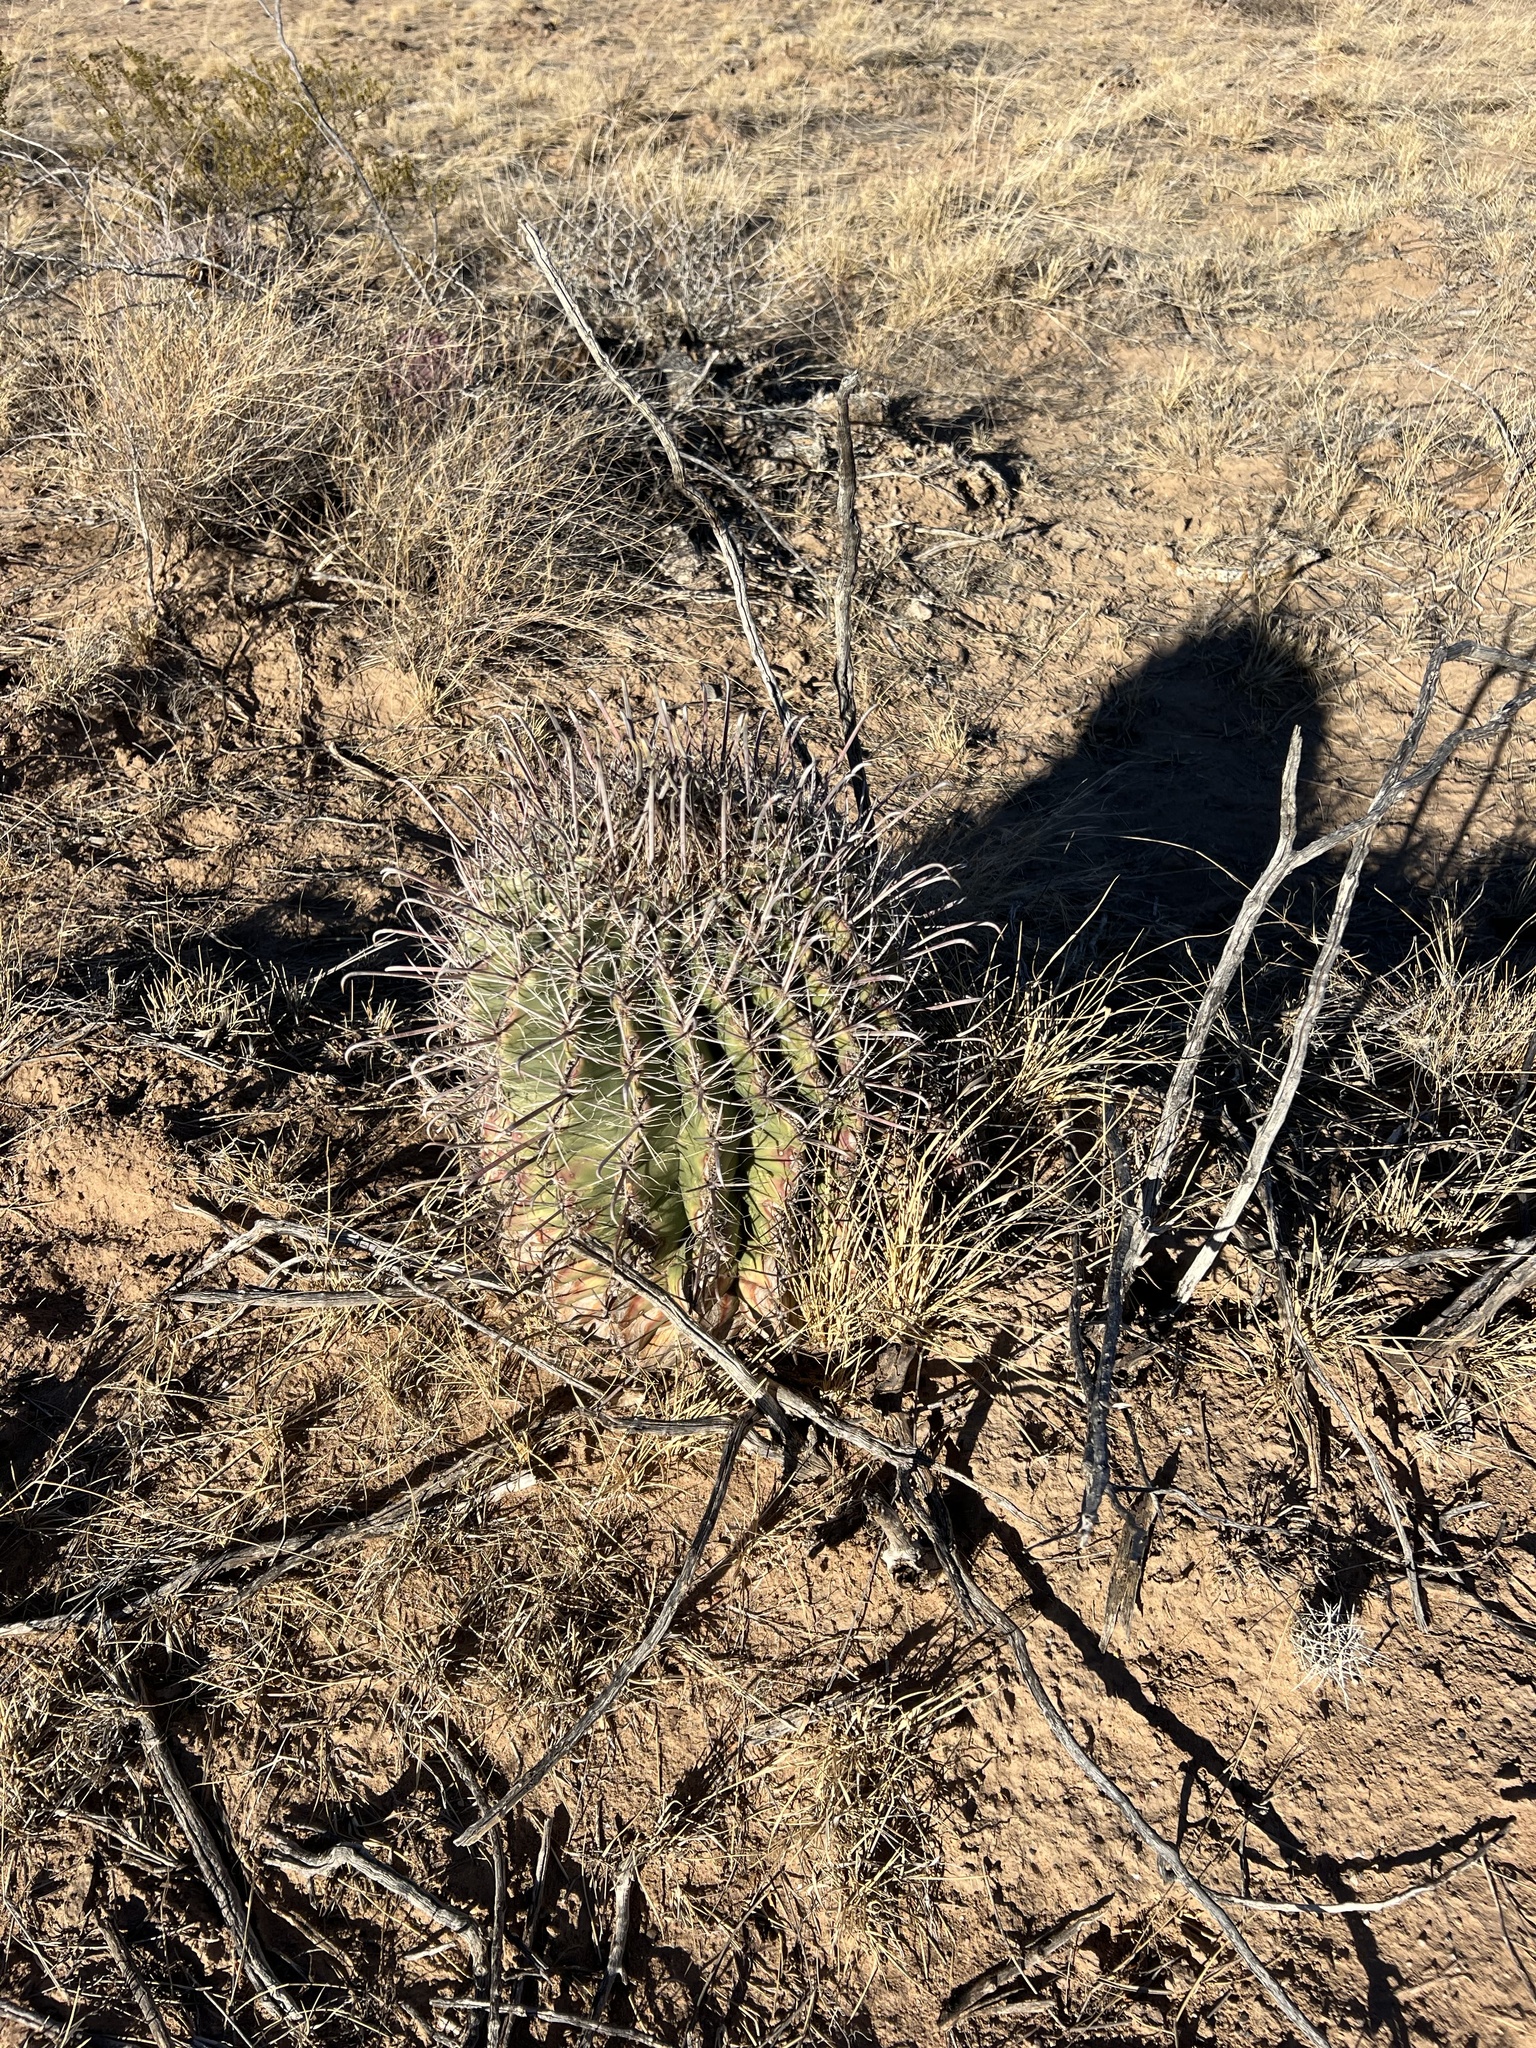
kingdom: Plantae
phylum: Tracheophyta
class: Magnoliopsida
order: Caryophyllales
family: Cactaceae
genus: Ferocactus
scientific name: Ferocactus wislizeni
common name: Candy barrel cactus
